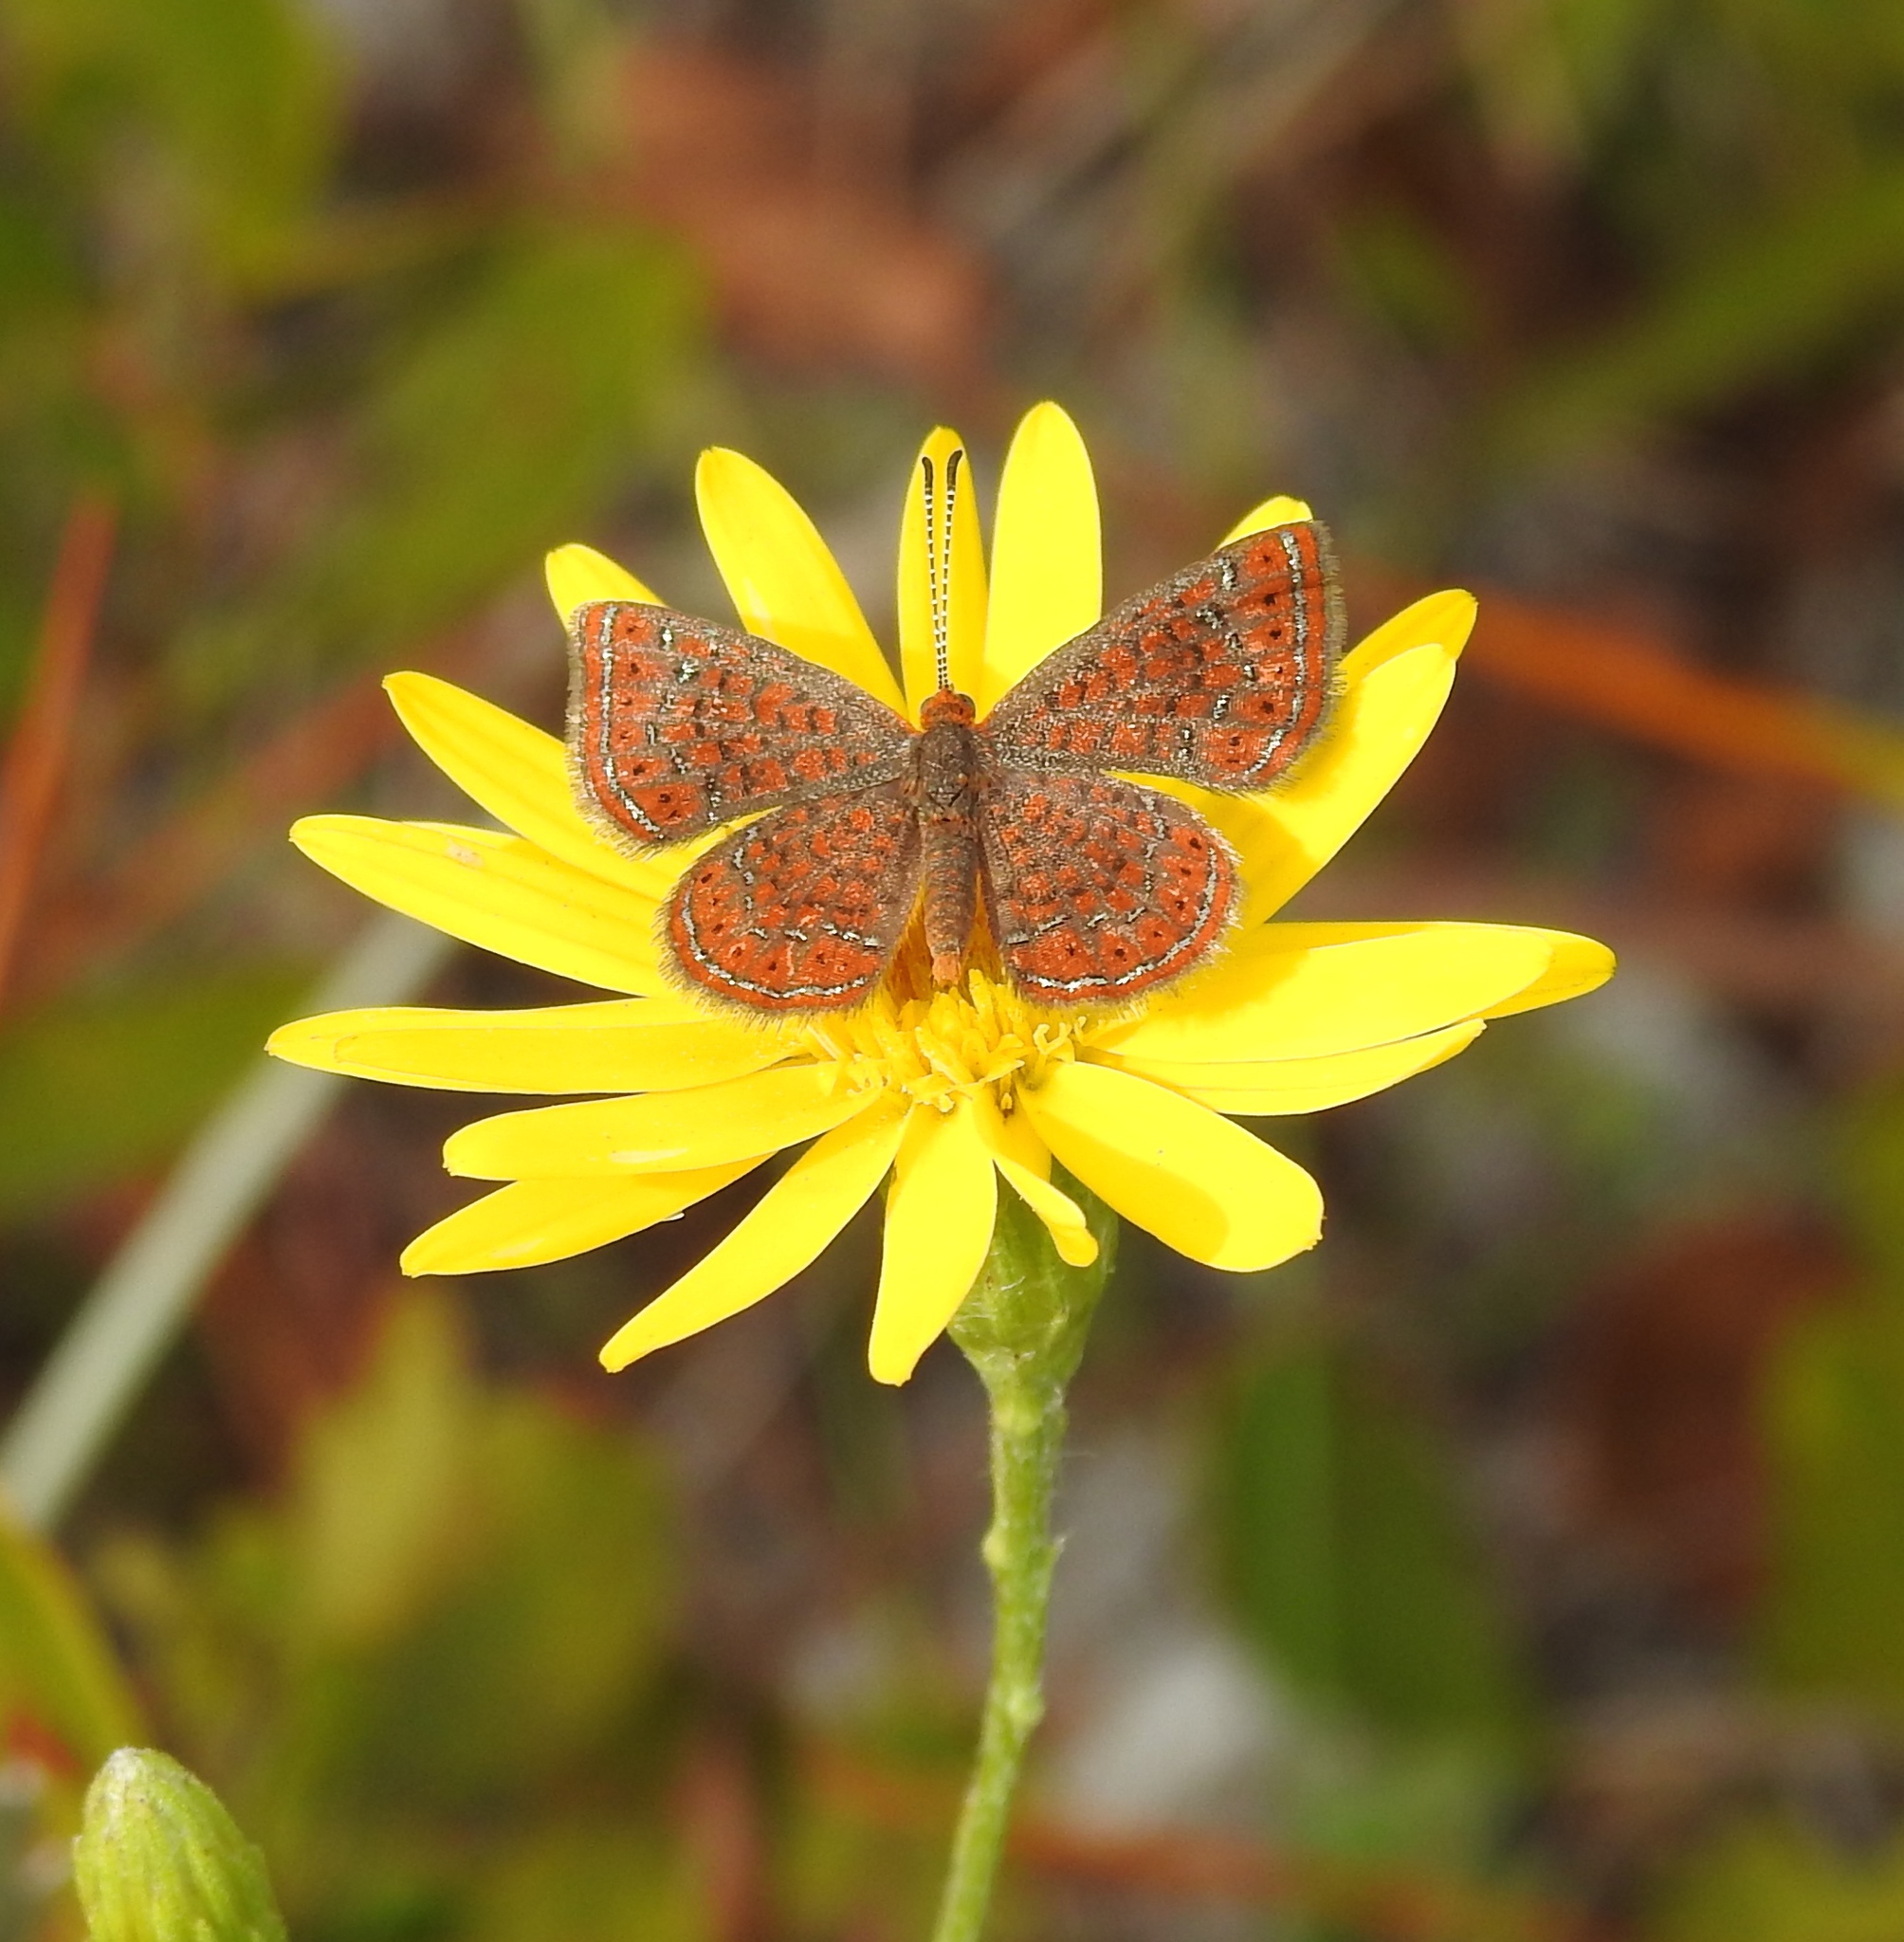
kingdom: Animalia
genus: Calephelis
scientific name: Calephelis virginiensis
